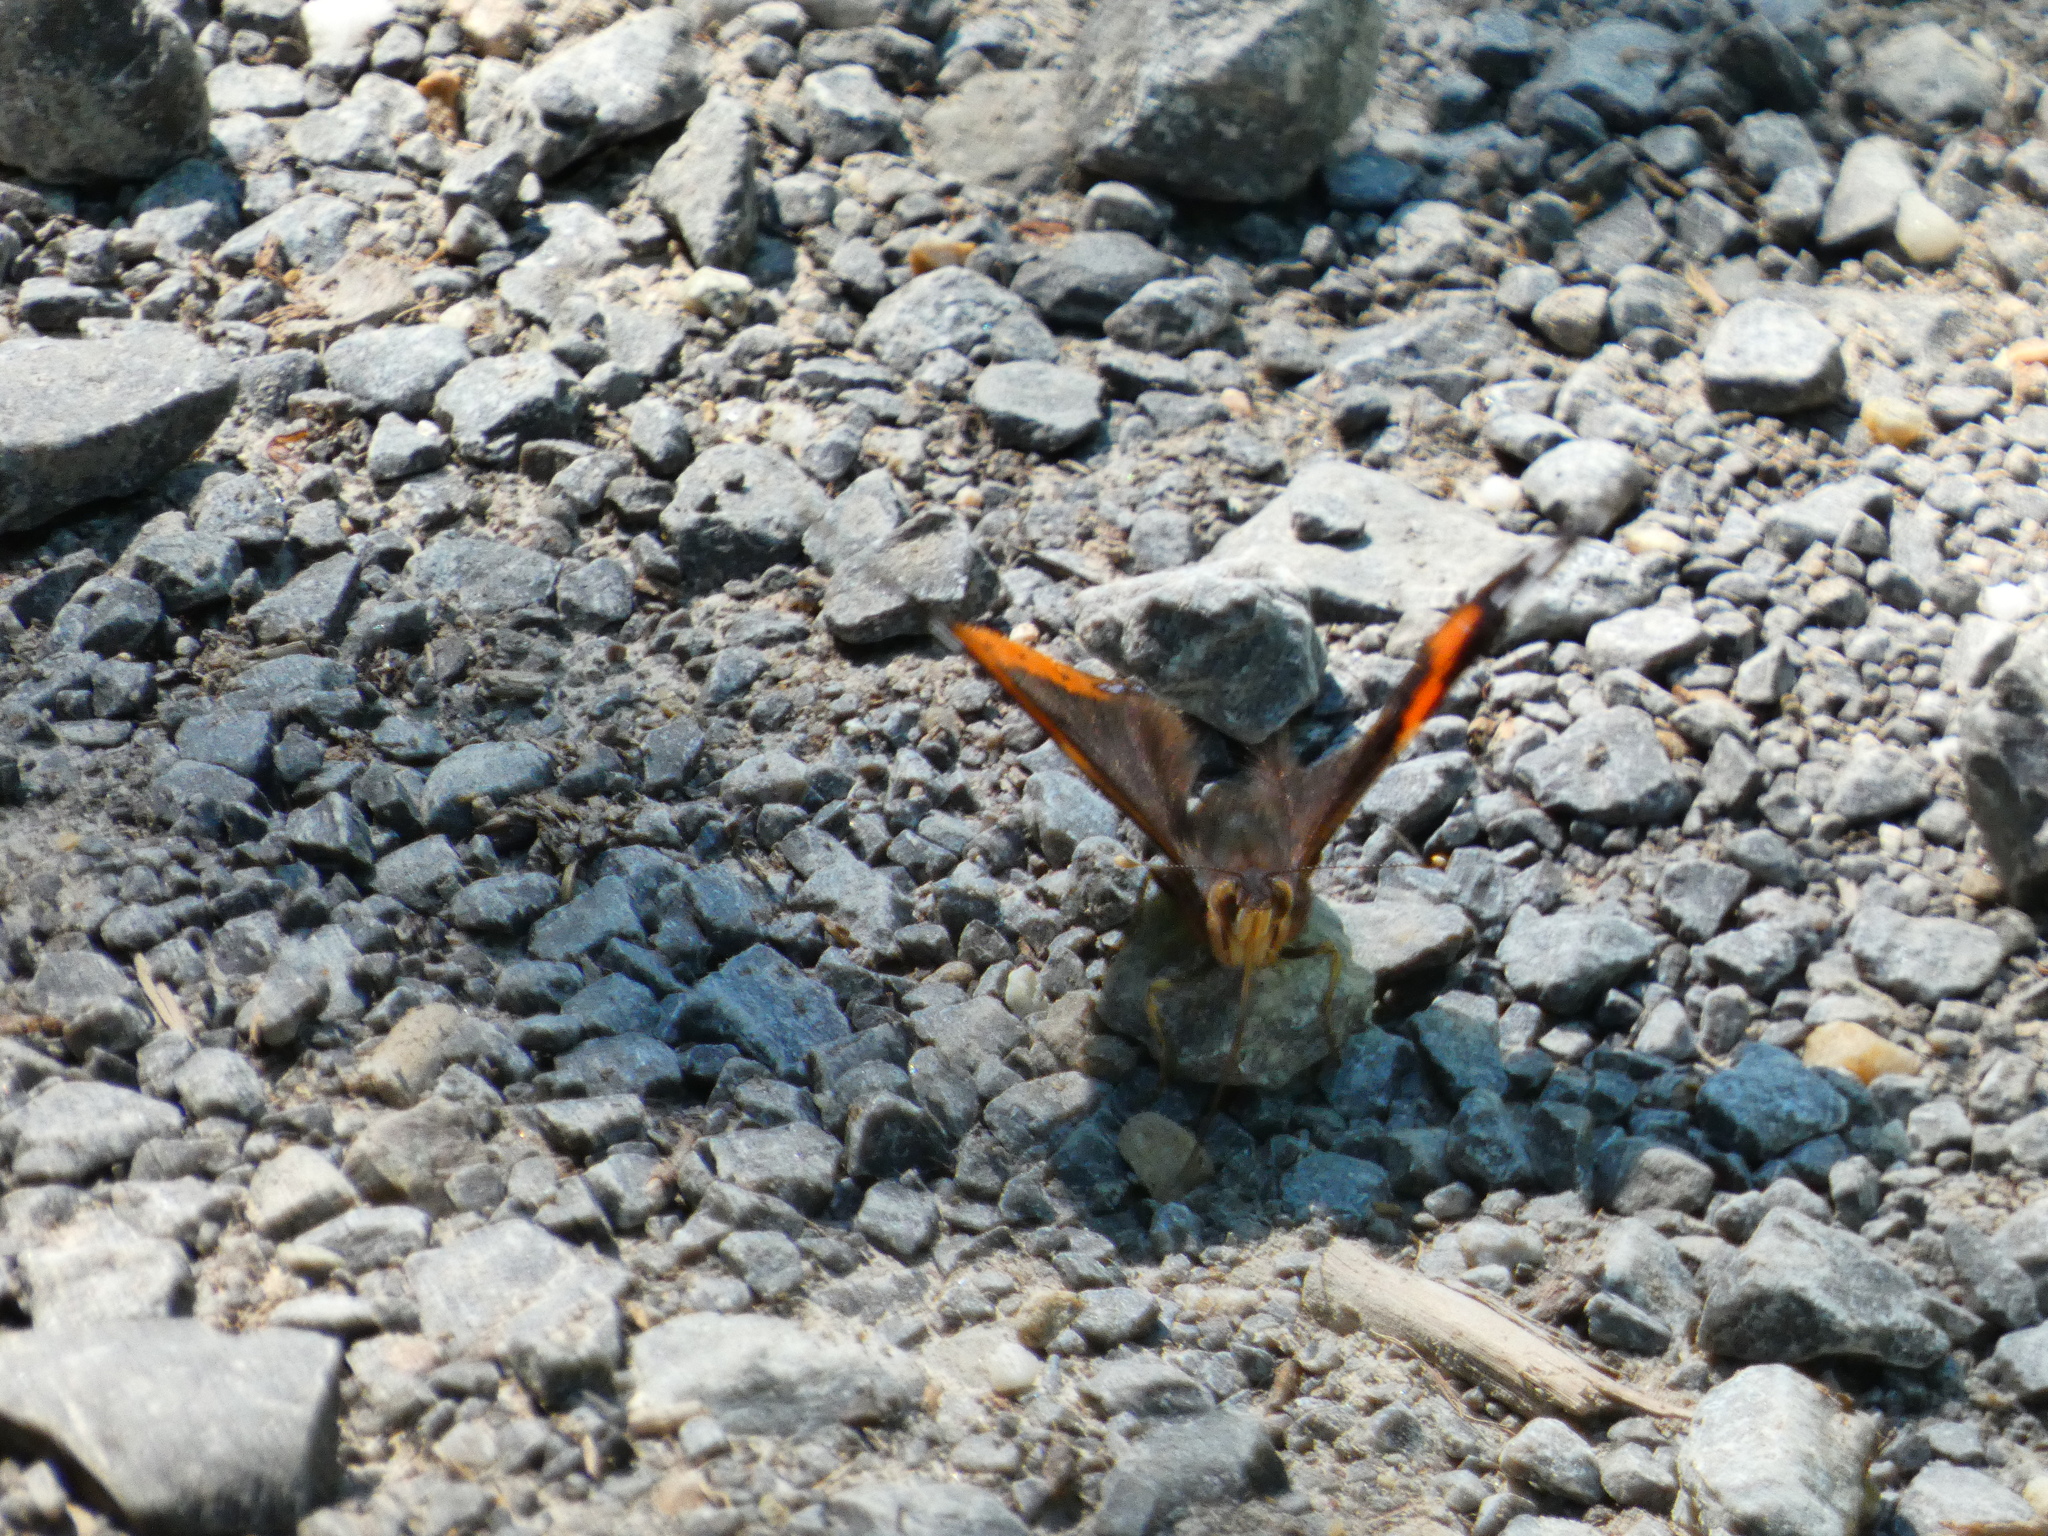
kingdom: Animalia
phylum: Arthropoda
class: Insecta
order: Lepidoptera
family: Nymphalidae
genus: Vanessa
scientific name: Vanessa atalanta
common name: Red admiral
